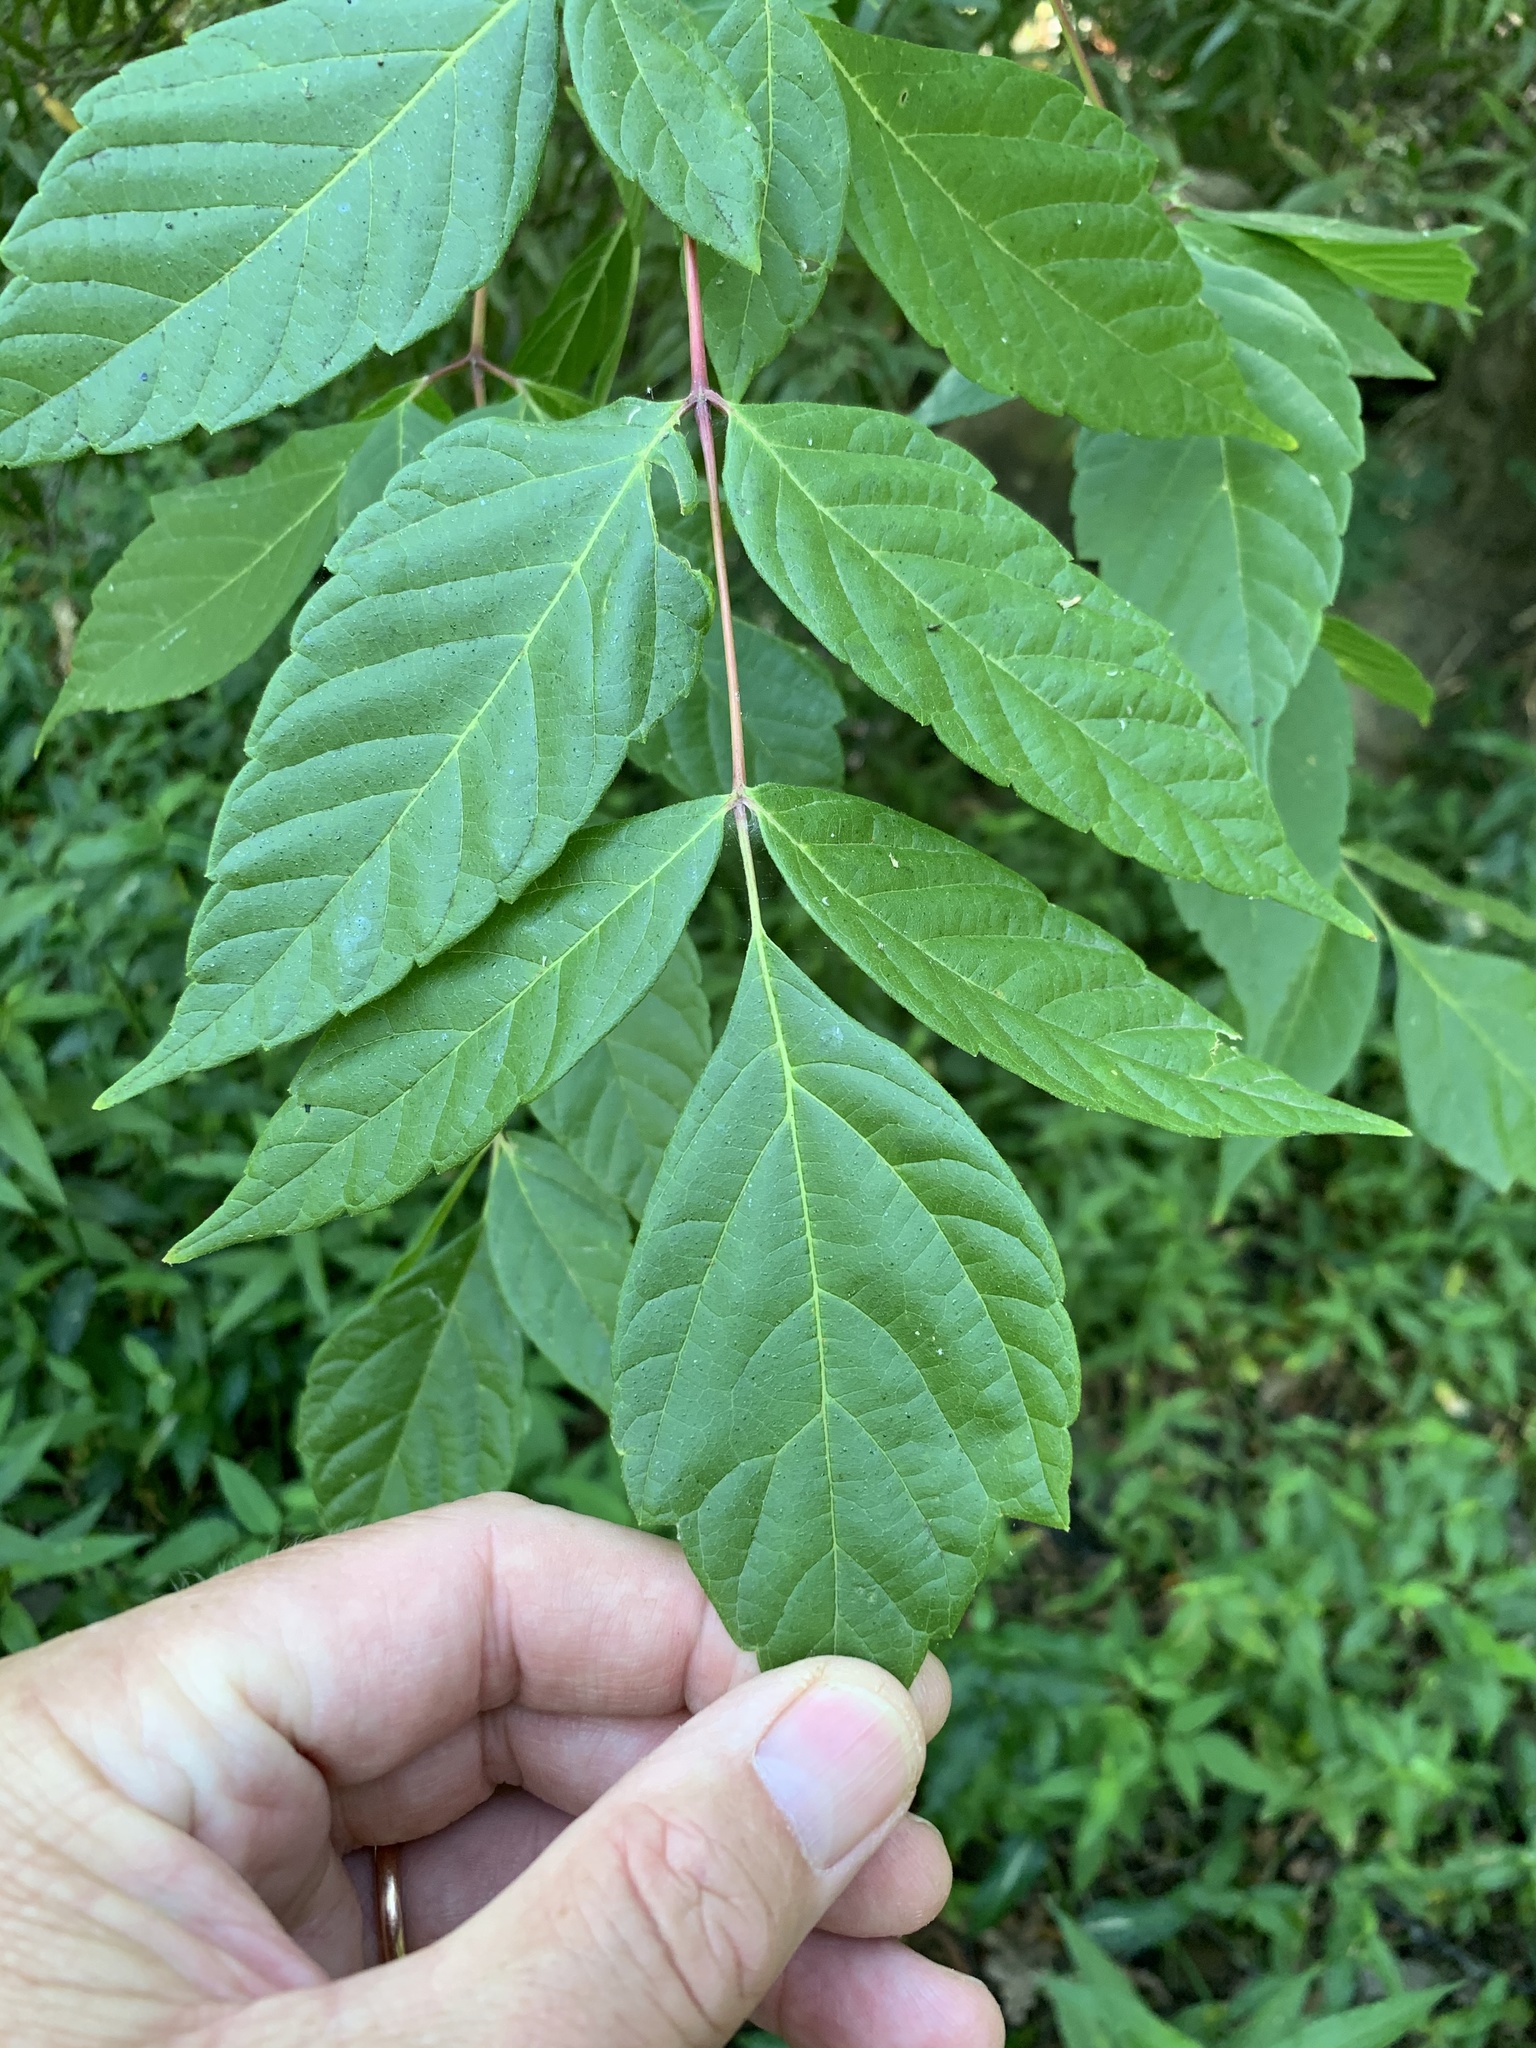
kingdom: Plantae
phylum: Tracheophyta
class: Magnoliopsida
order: Sapindales
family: Sapindaceae
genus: Acer
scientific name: Acer negundo
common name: Ashleaf maple
